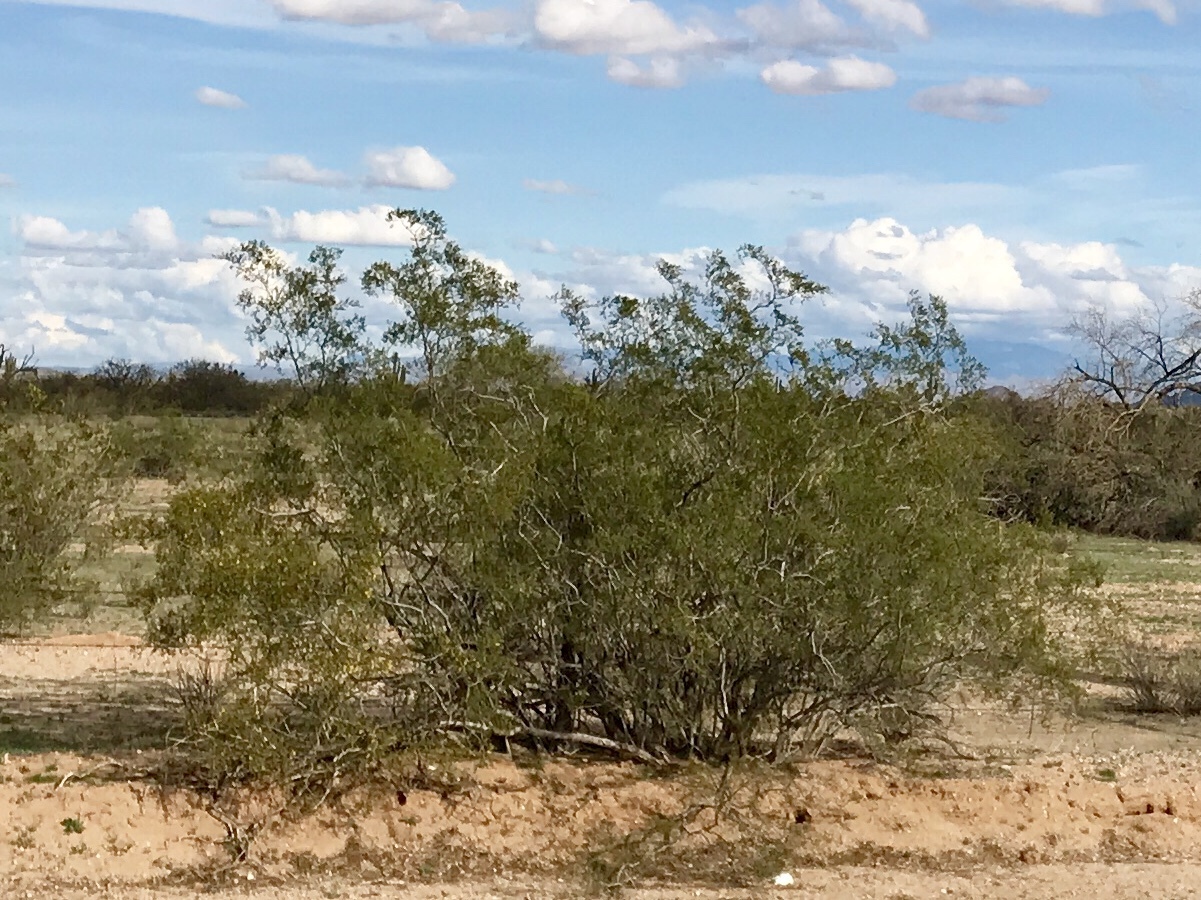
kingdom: Plantae
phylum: Tracheophyta
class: Magnoliopsida
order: Zygophyllales
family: Zygophyllaceae
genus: Larrea
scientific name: Larrea tridentata
